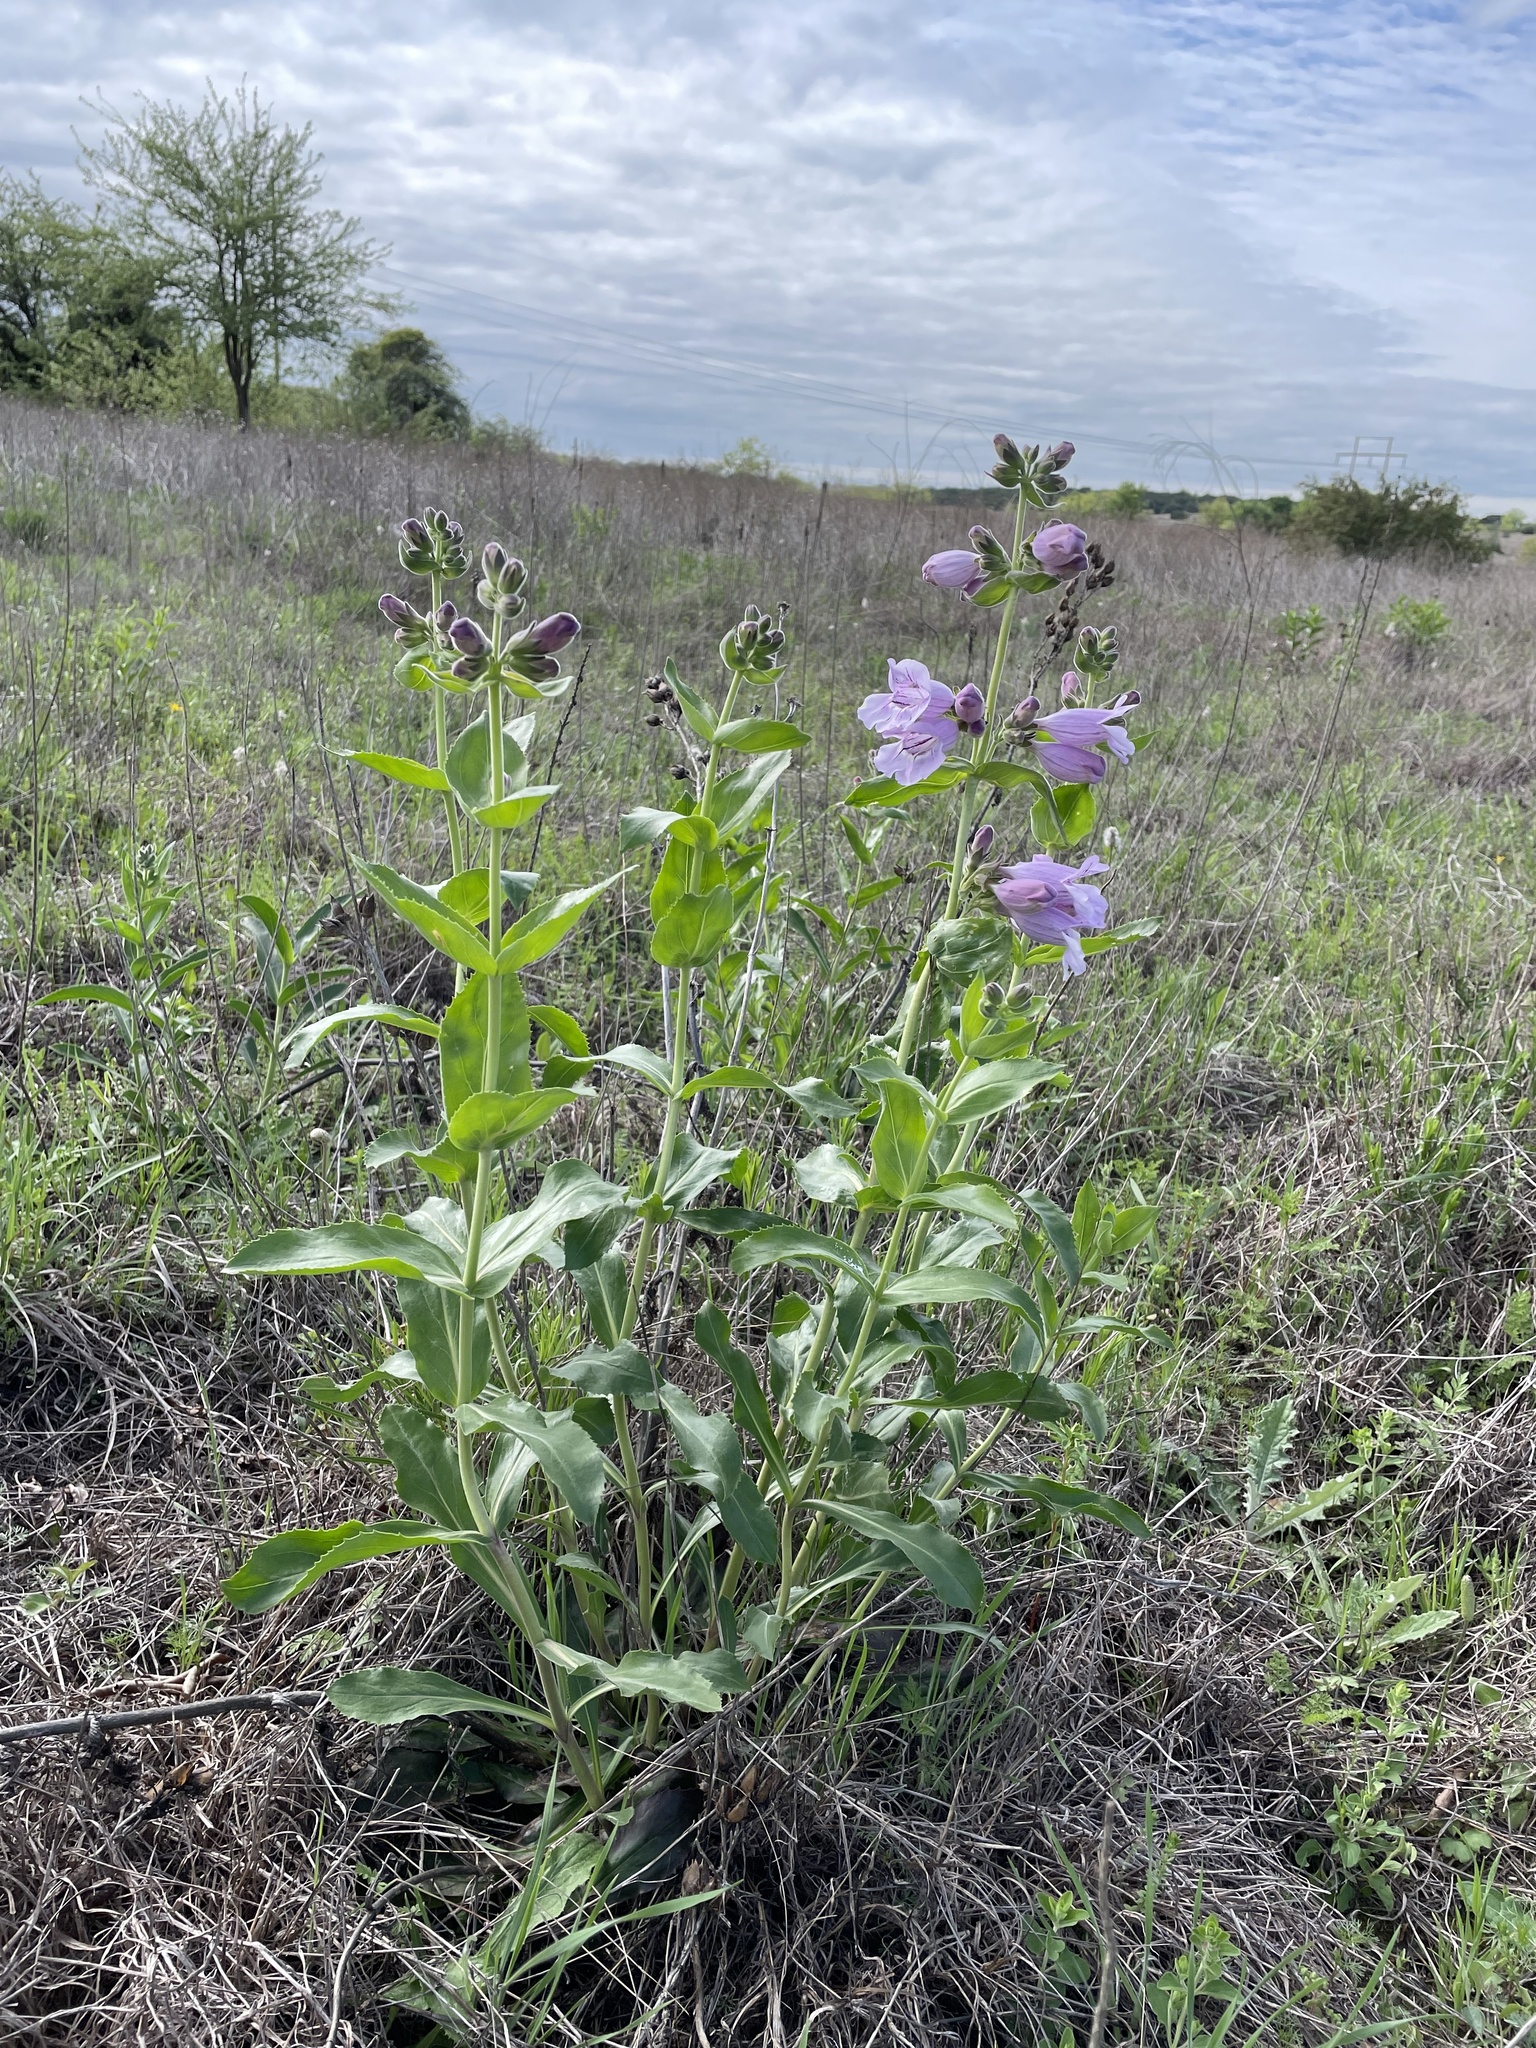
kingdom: Plantae
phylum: Tracheophyta
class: Magnoliopsida
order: Lamiales
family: Plantaginaceae
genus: Penstemon
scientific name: Penstemon cobaea
